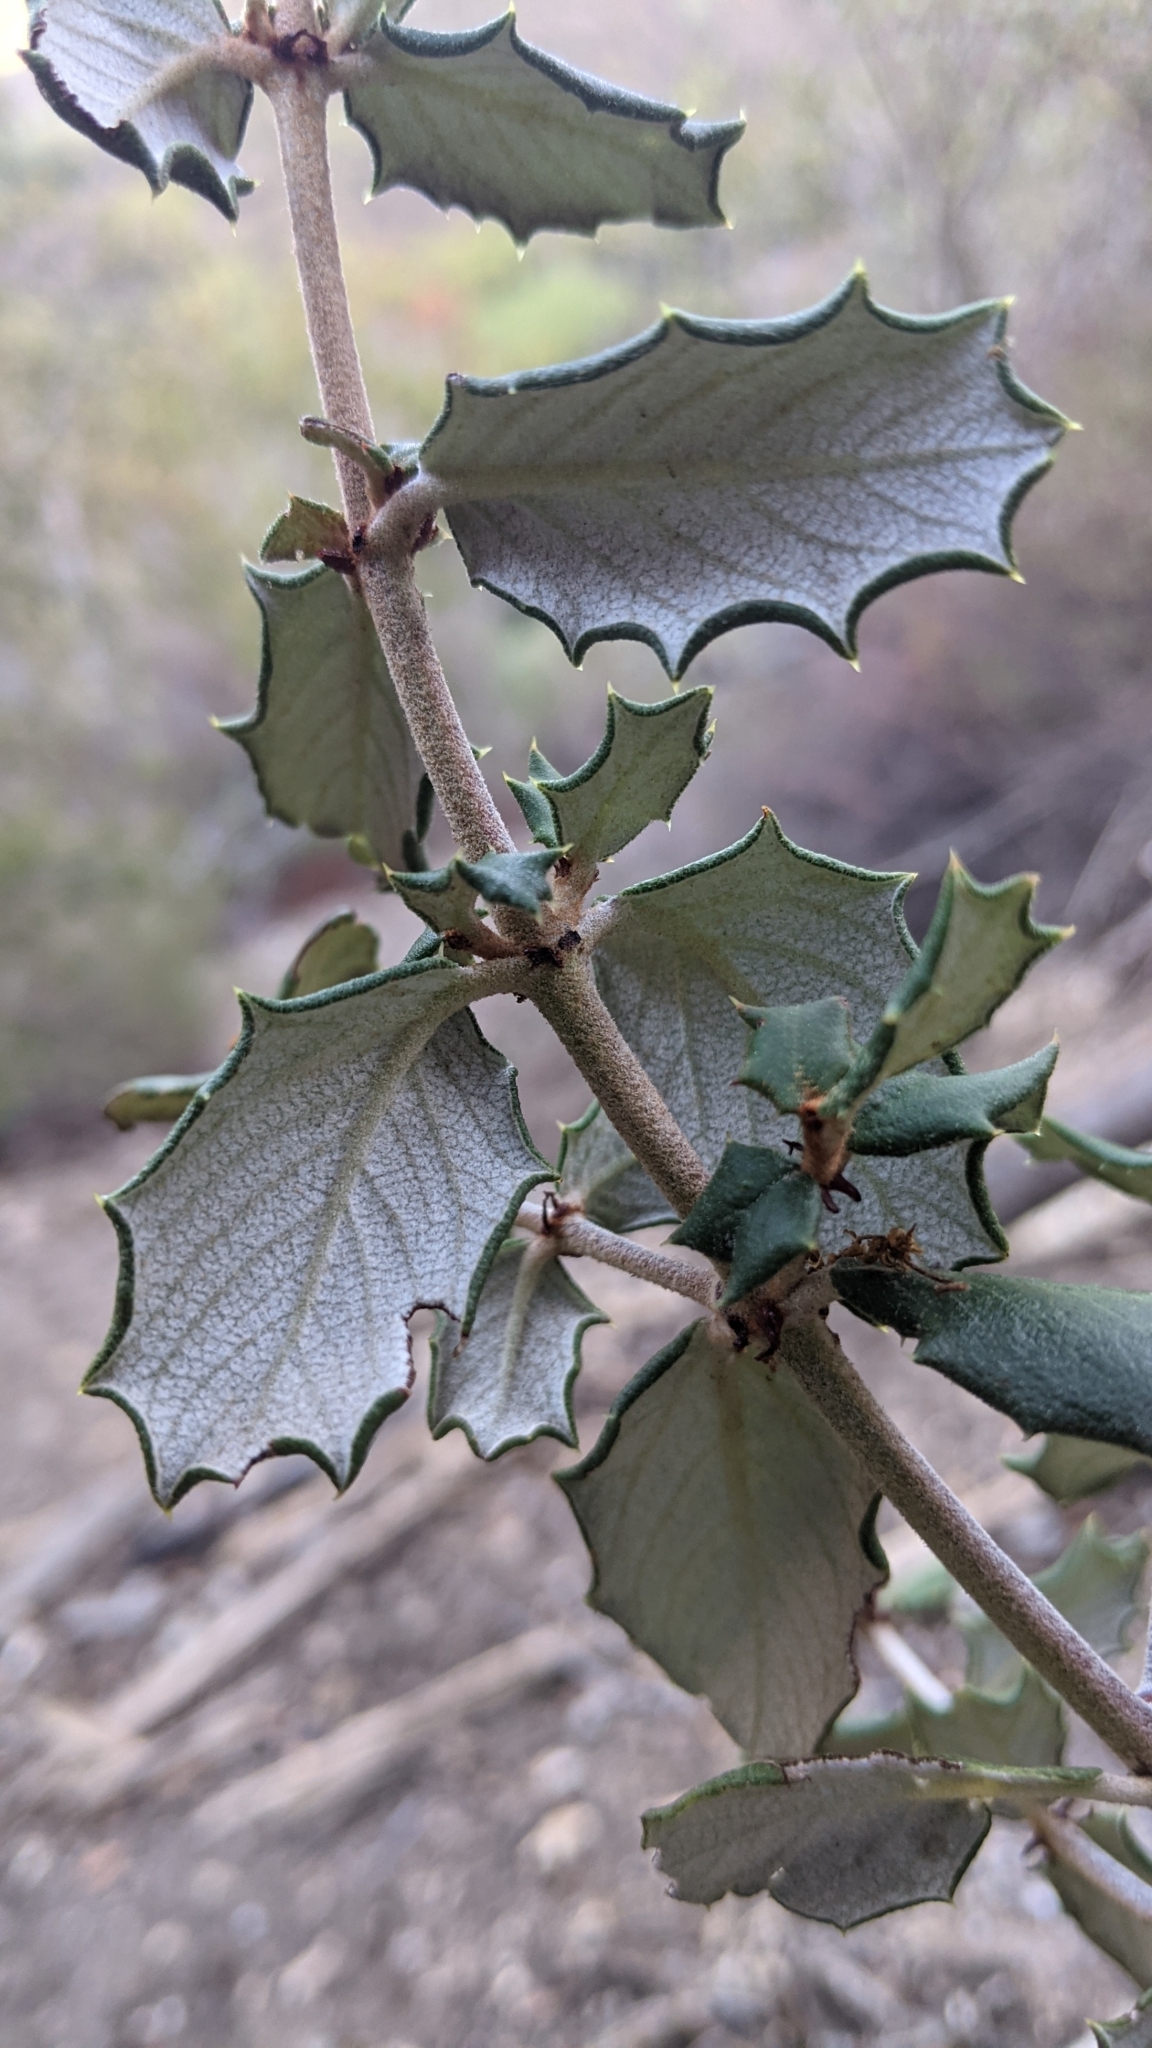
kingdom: Plantae
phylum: Tracheophyta
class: Magnoliopsida
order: Rosales
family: Rhamnaceae
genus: Ceanothus
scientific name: Ceanothus crassifolius
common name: Hoaryleaf ceanothus
